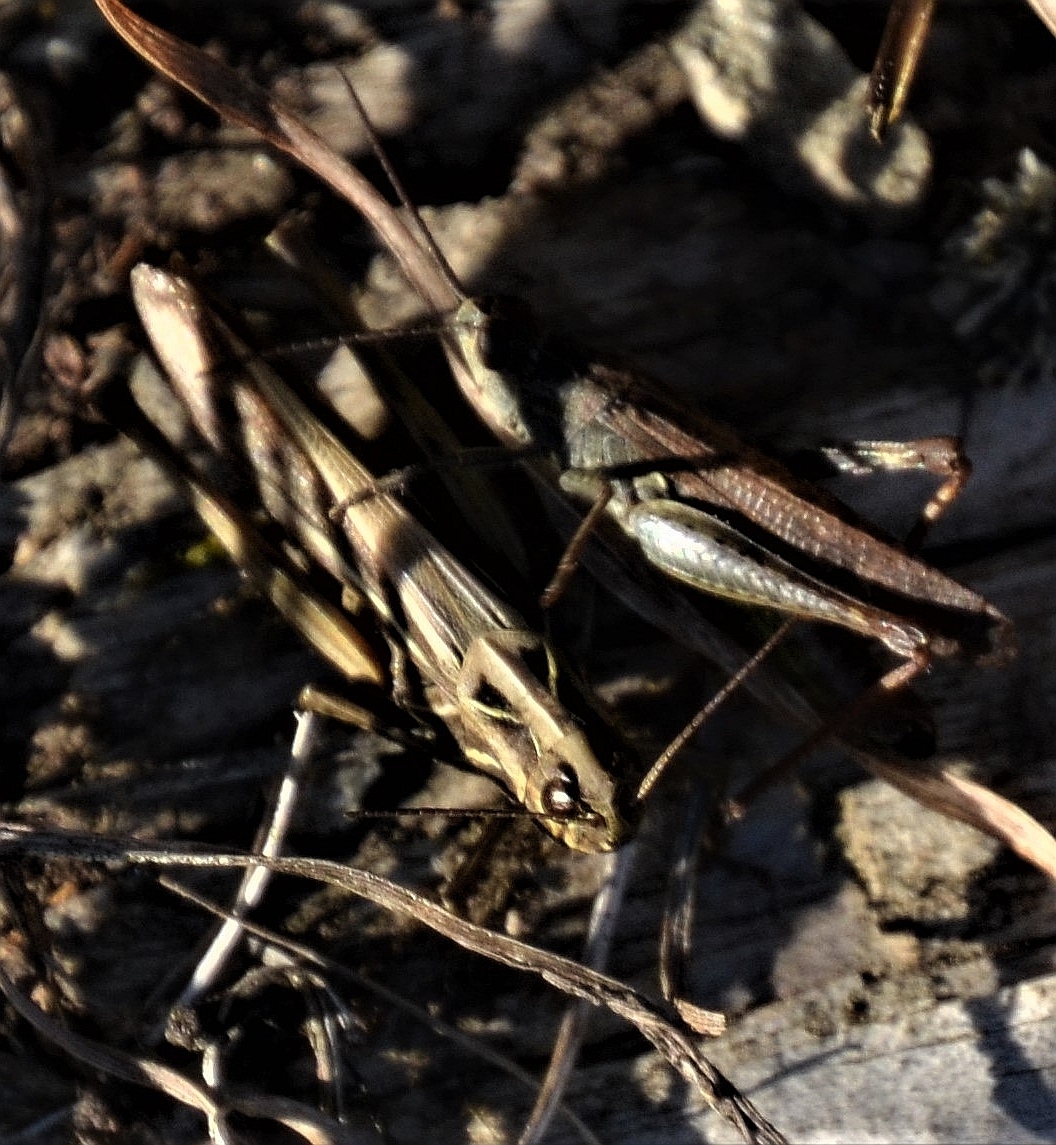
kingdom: Animalia
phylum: Arthropoda
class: Insecta
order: Orthoptera
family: Acrididae
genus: Chorthippus
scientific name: Chorthippus biguttulus
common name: Bow-winged grasshopper
